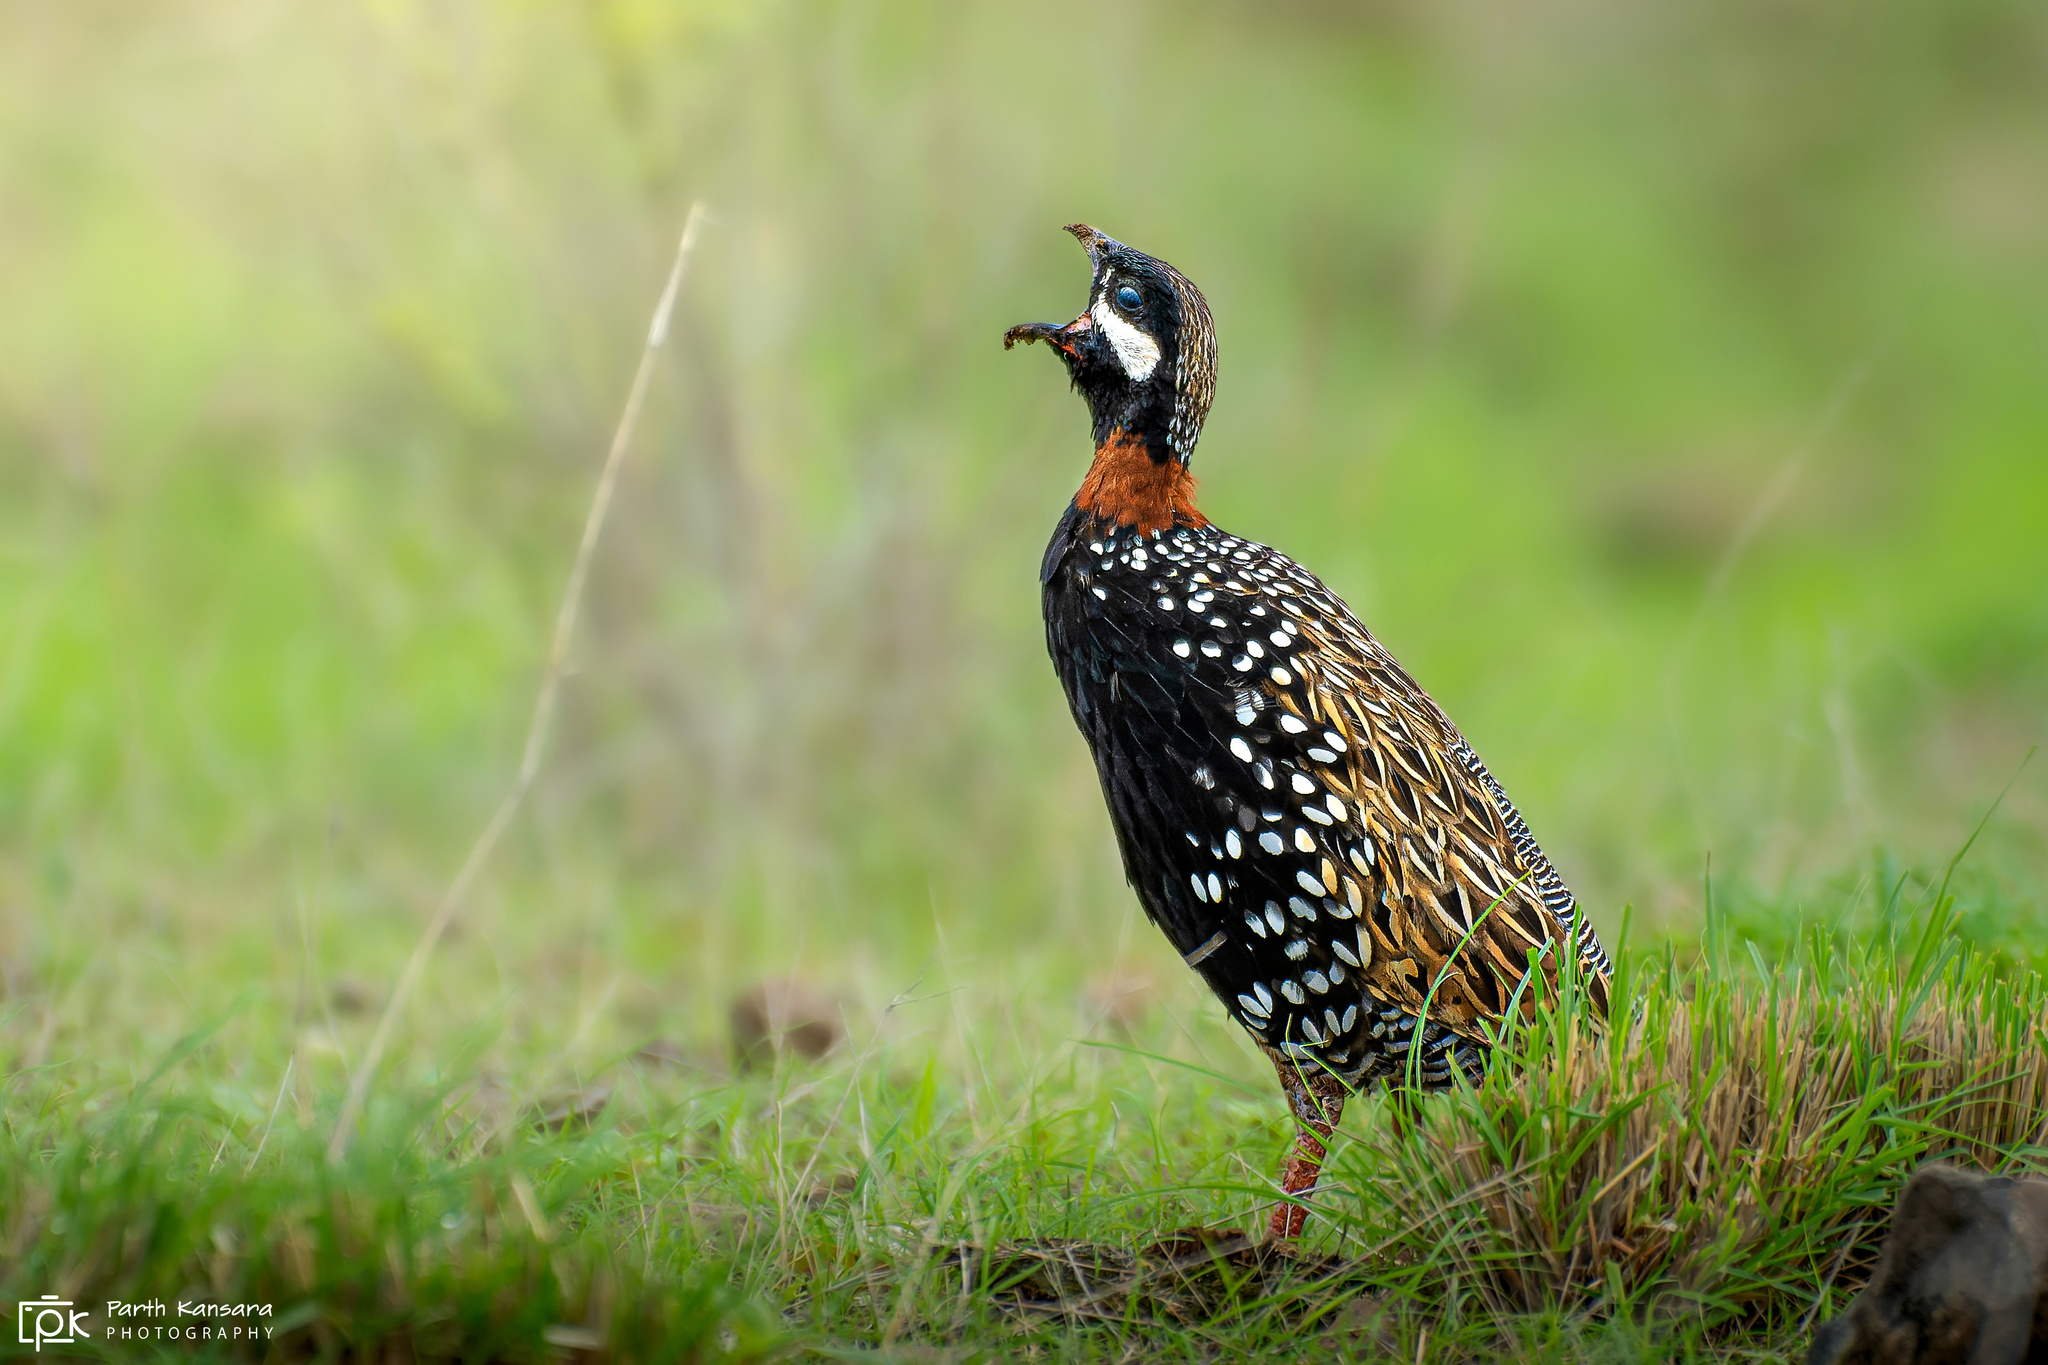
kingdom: Animalia
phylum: Chordata
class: Aves
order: Galliformes
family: Phasianidae
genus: Francolinus
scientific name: Francolinus francolinus
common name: Black francolin
